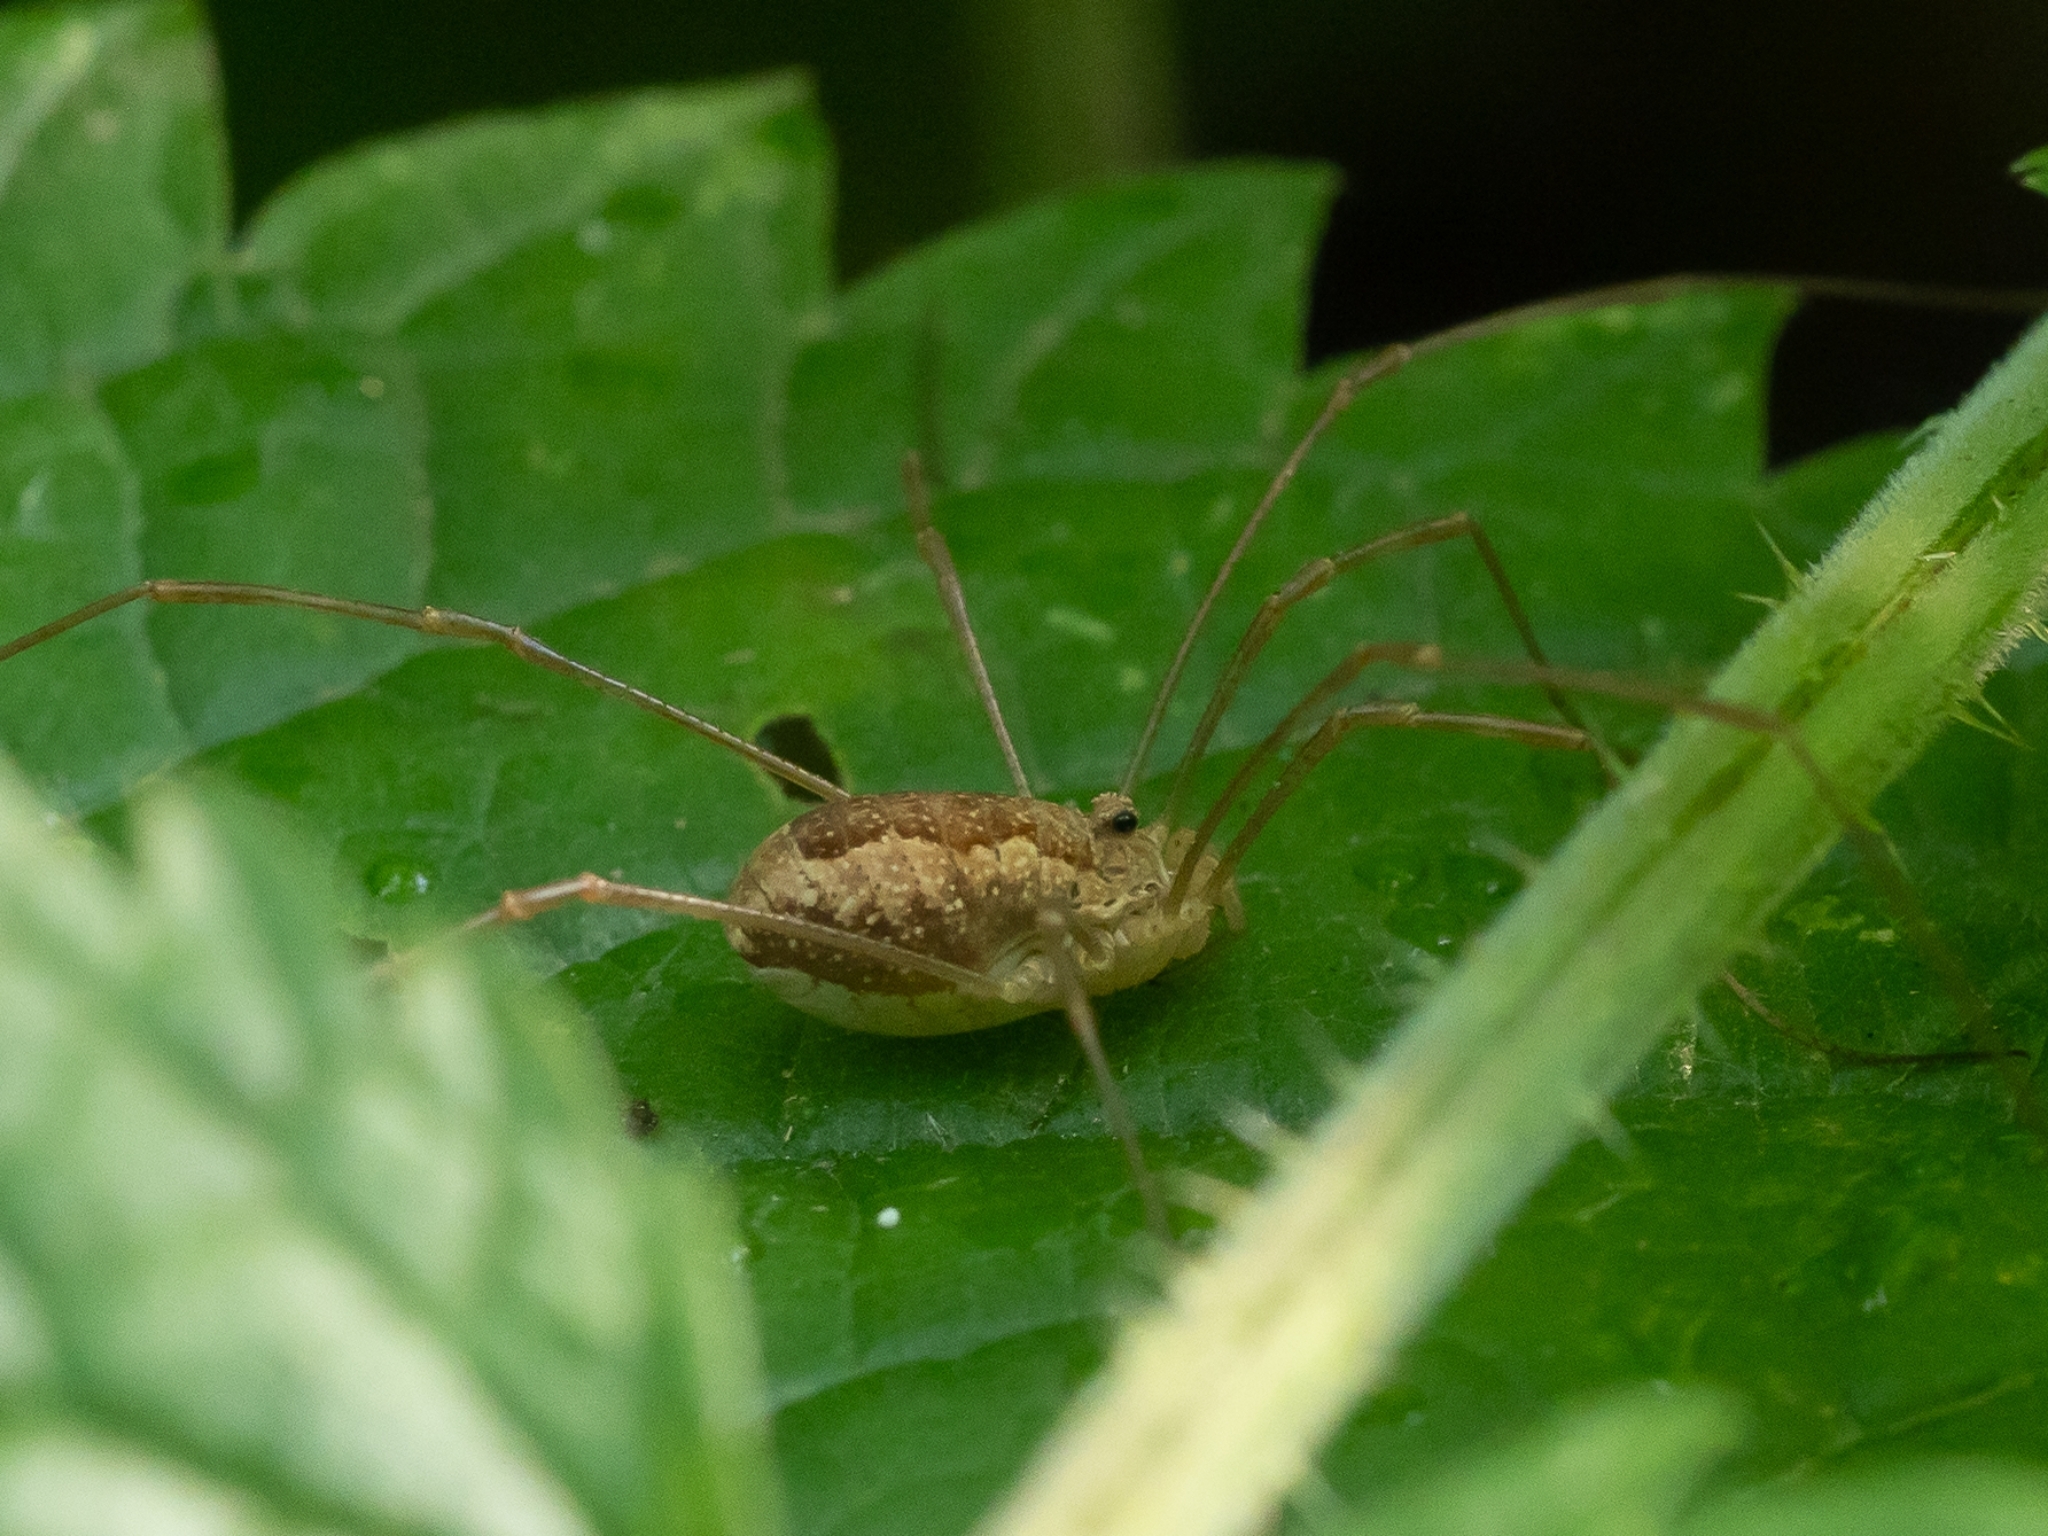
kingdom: Animalia
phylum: Arthropoda
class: Arachnida
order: Opiliones
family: Phalangiidae
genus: Rilaena
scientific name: Rilaena triangularis
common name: Spring harvestman
